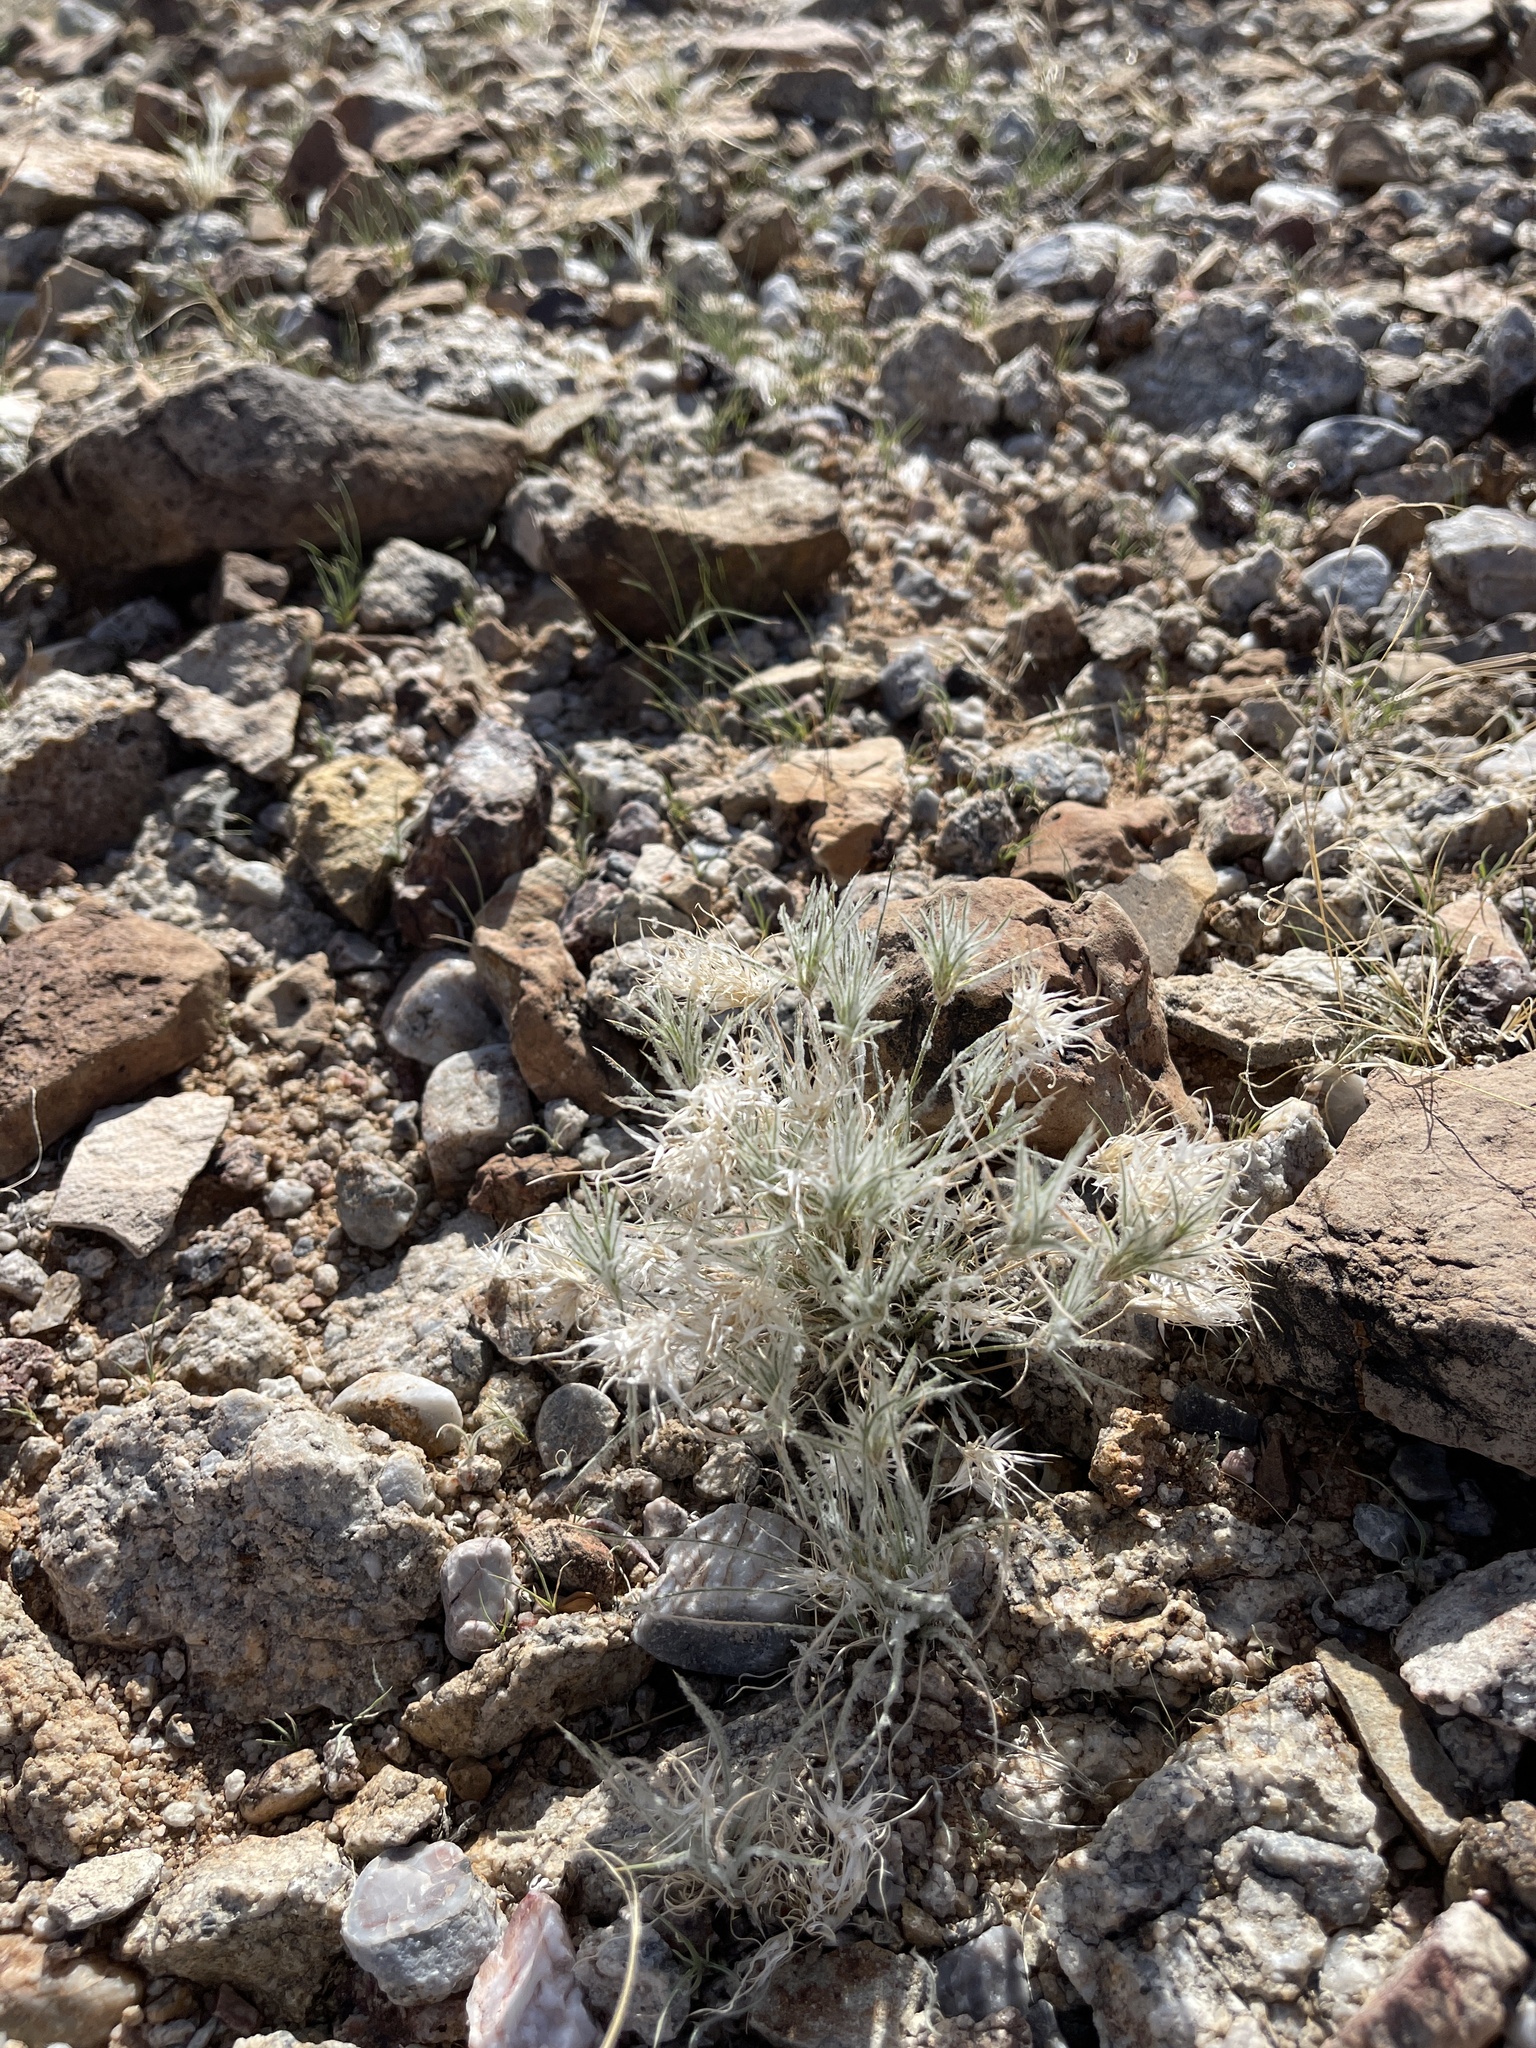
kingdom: Plantae
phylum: Tracheophyta
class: Liliopsida
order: Poales
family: Poaceae
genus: Dasyochloa
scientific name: Dasyochloa pulchella
